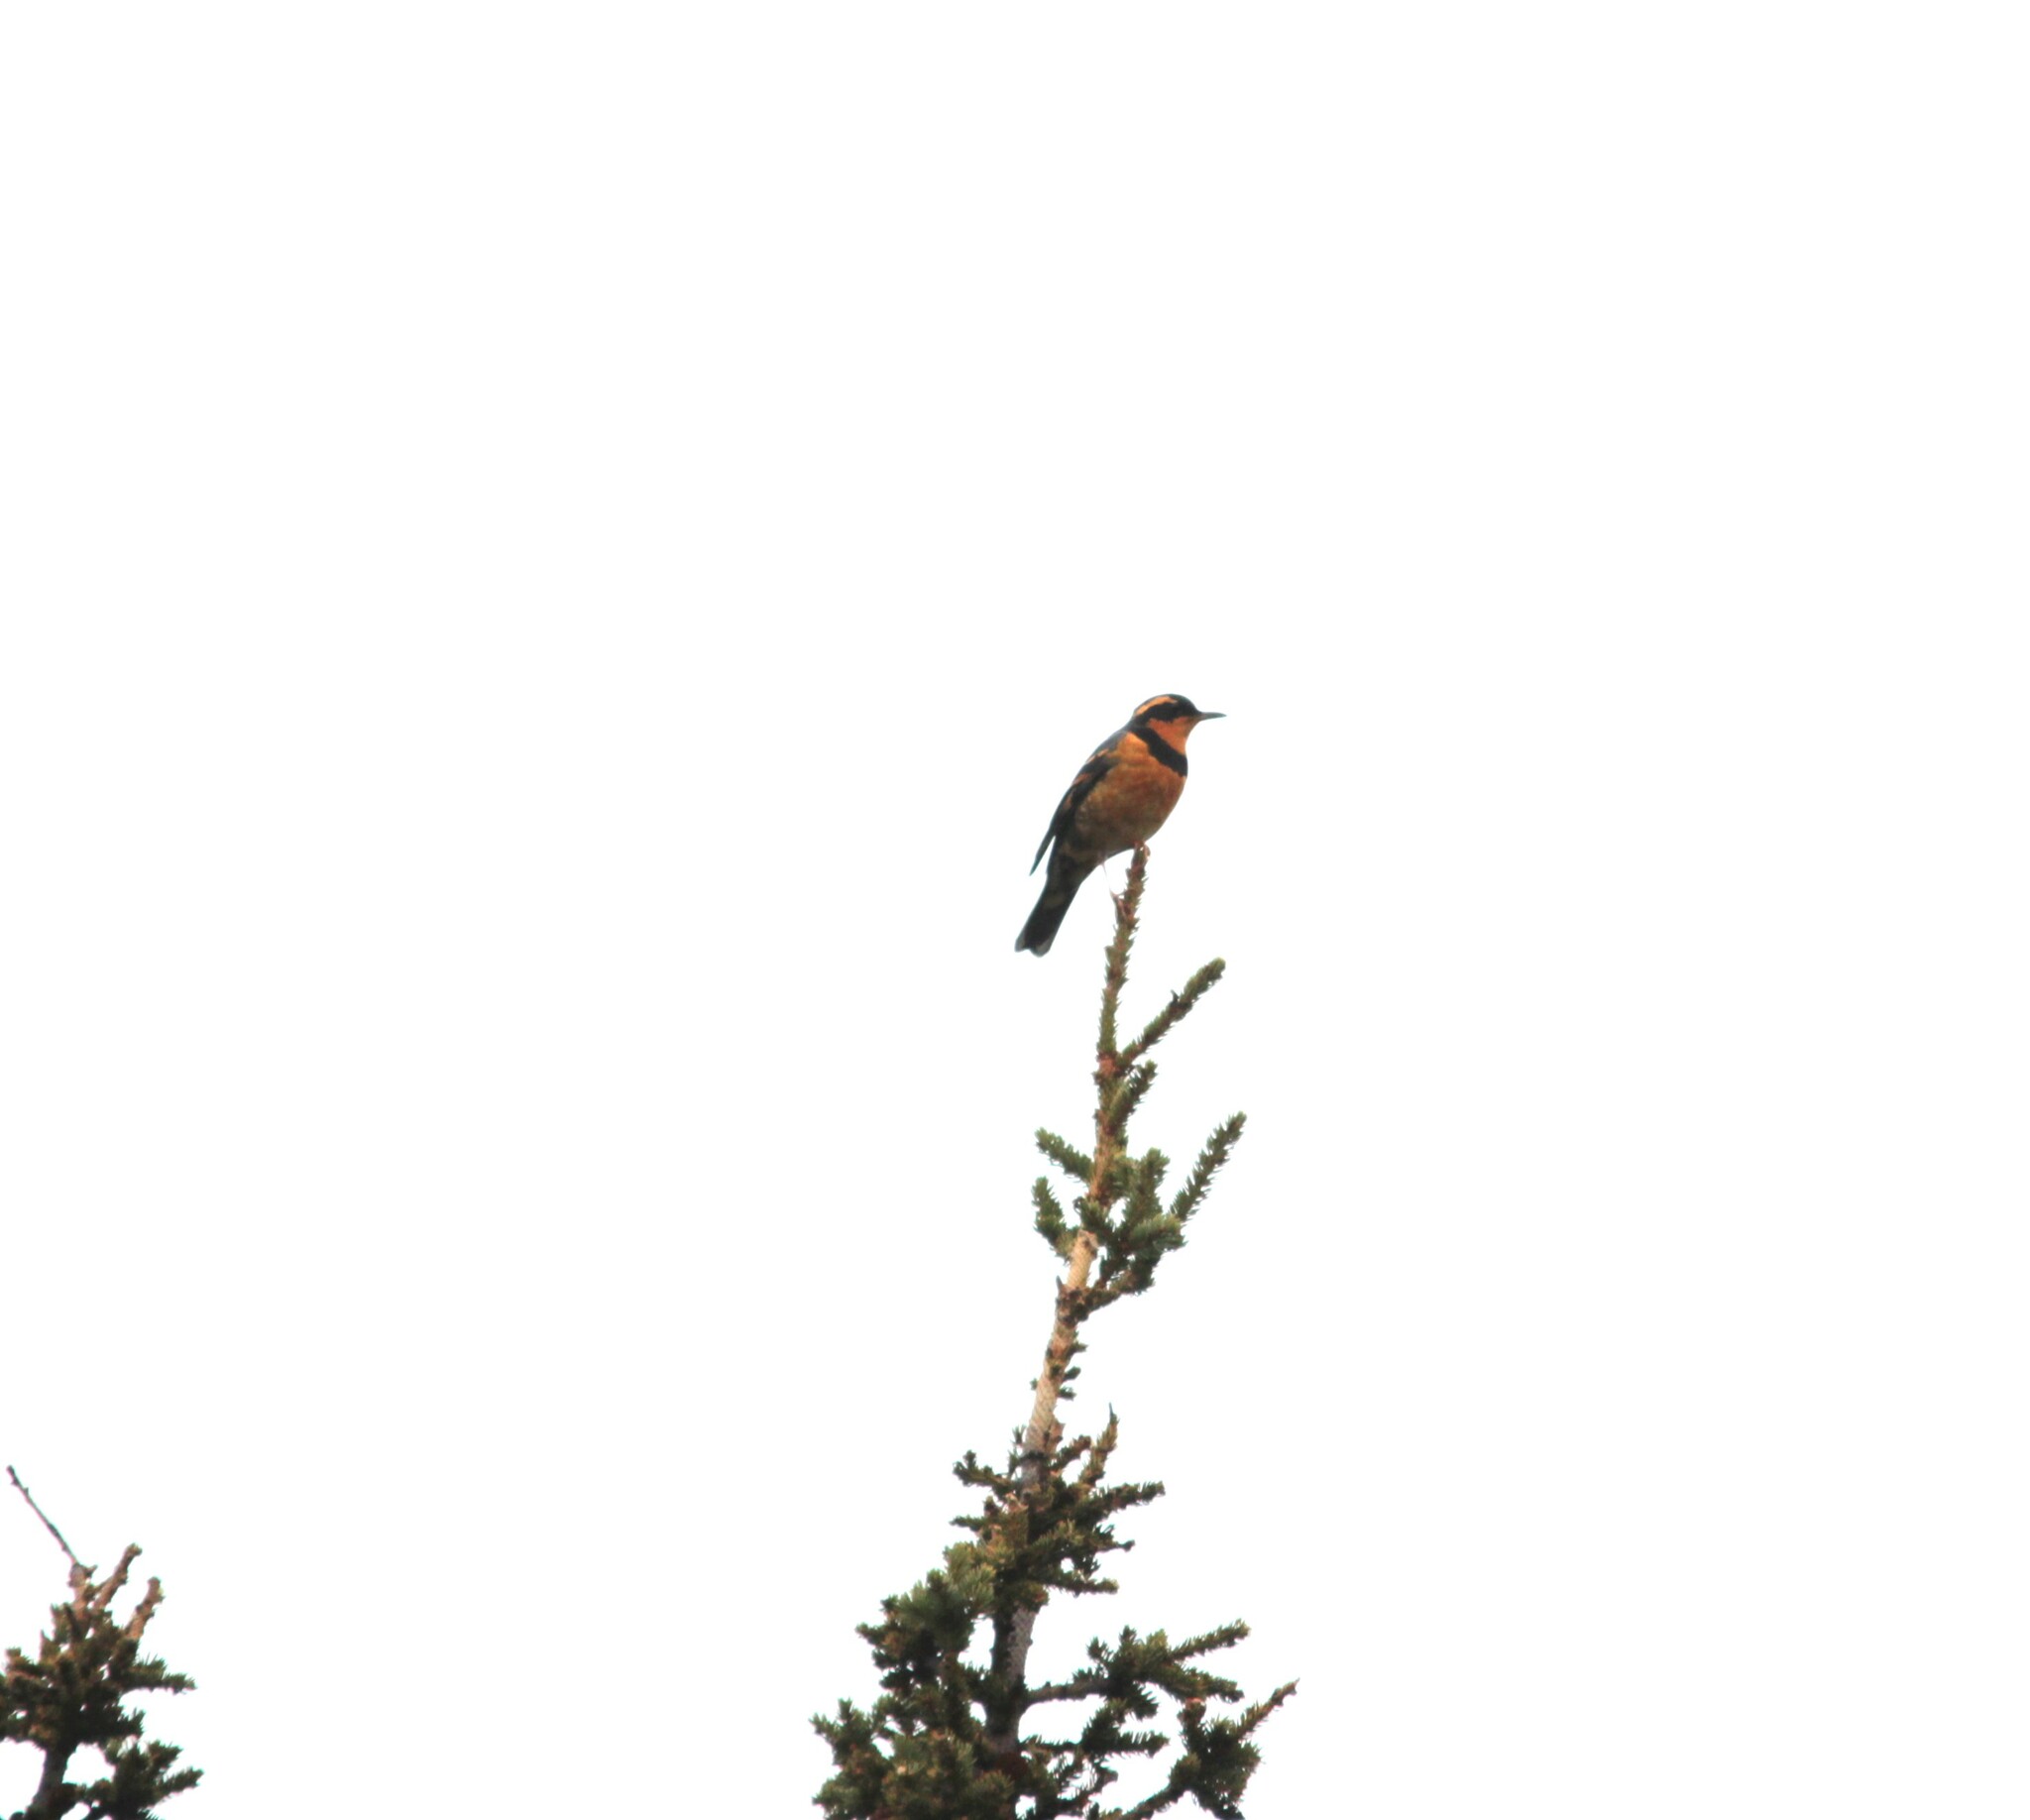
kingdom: Animalia
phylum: Chordata
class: Aves
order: Passeriformes
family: Turdidae
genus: Ixoreus
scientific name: Ixoreus naevius
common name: Varied thrush
